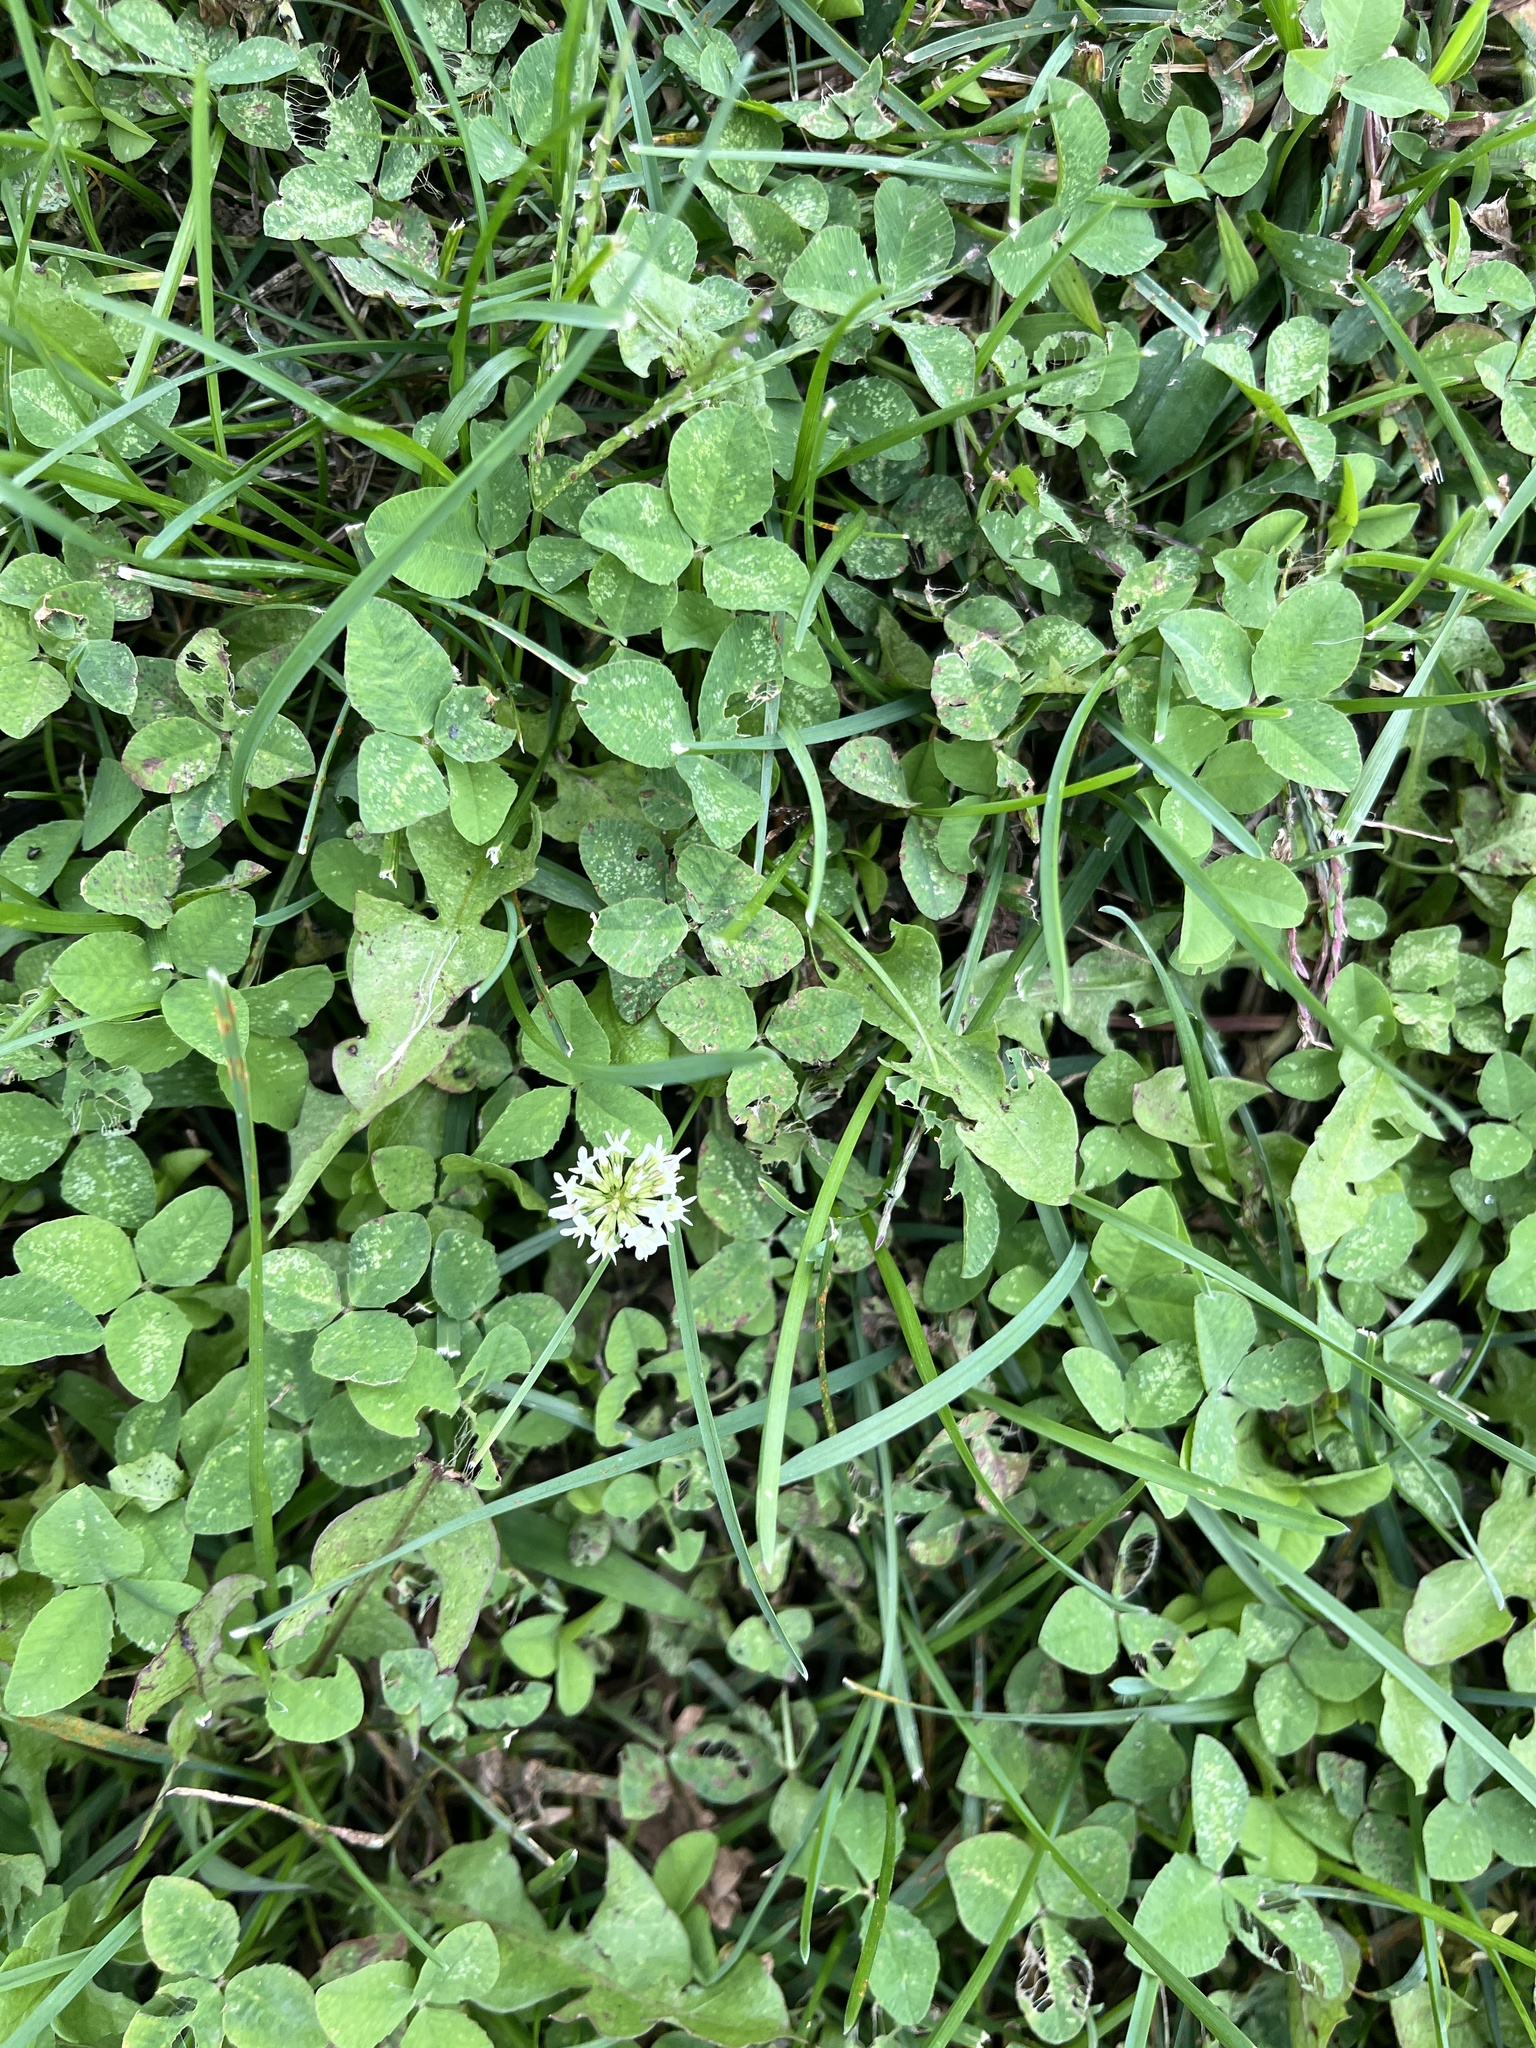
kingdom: Plantae
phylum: Tracheophyta
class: Magnoliopsida
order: Fabales
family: Fabaceae
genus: Trifolium
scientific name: Trifolium repens
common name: White clover
